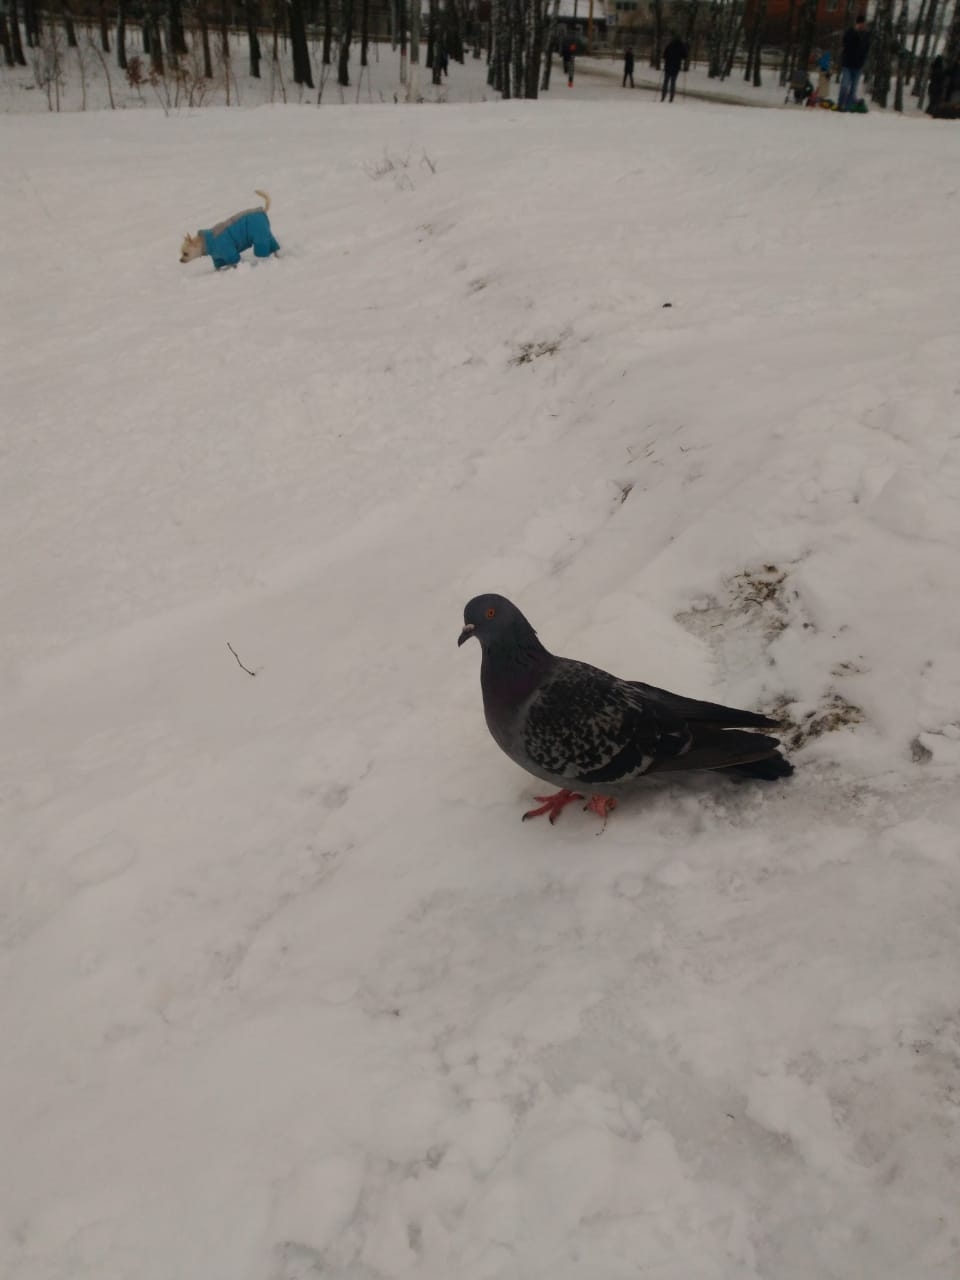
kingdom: Animalia
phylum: Chordata
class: Aves
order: Columbiformes
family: Columbidae
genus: Columba
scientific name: Columba livia
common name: Rock pigeon
